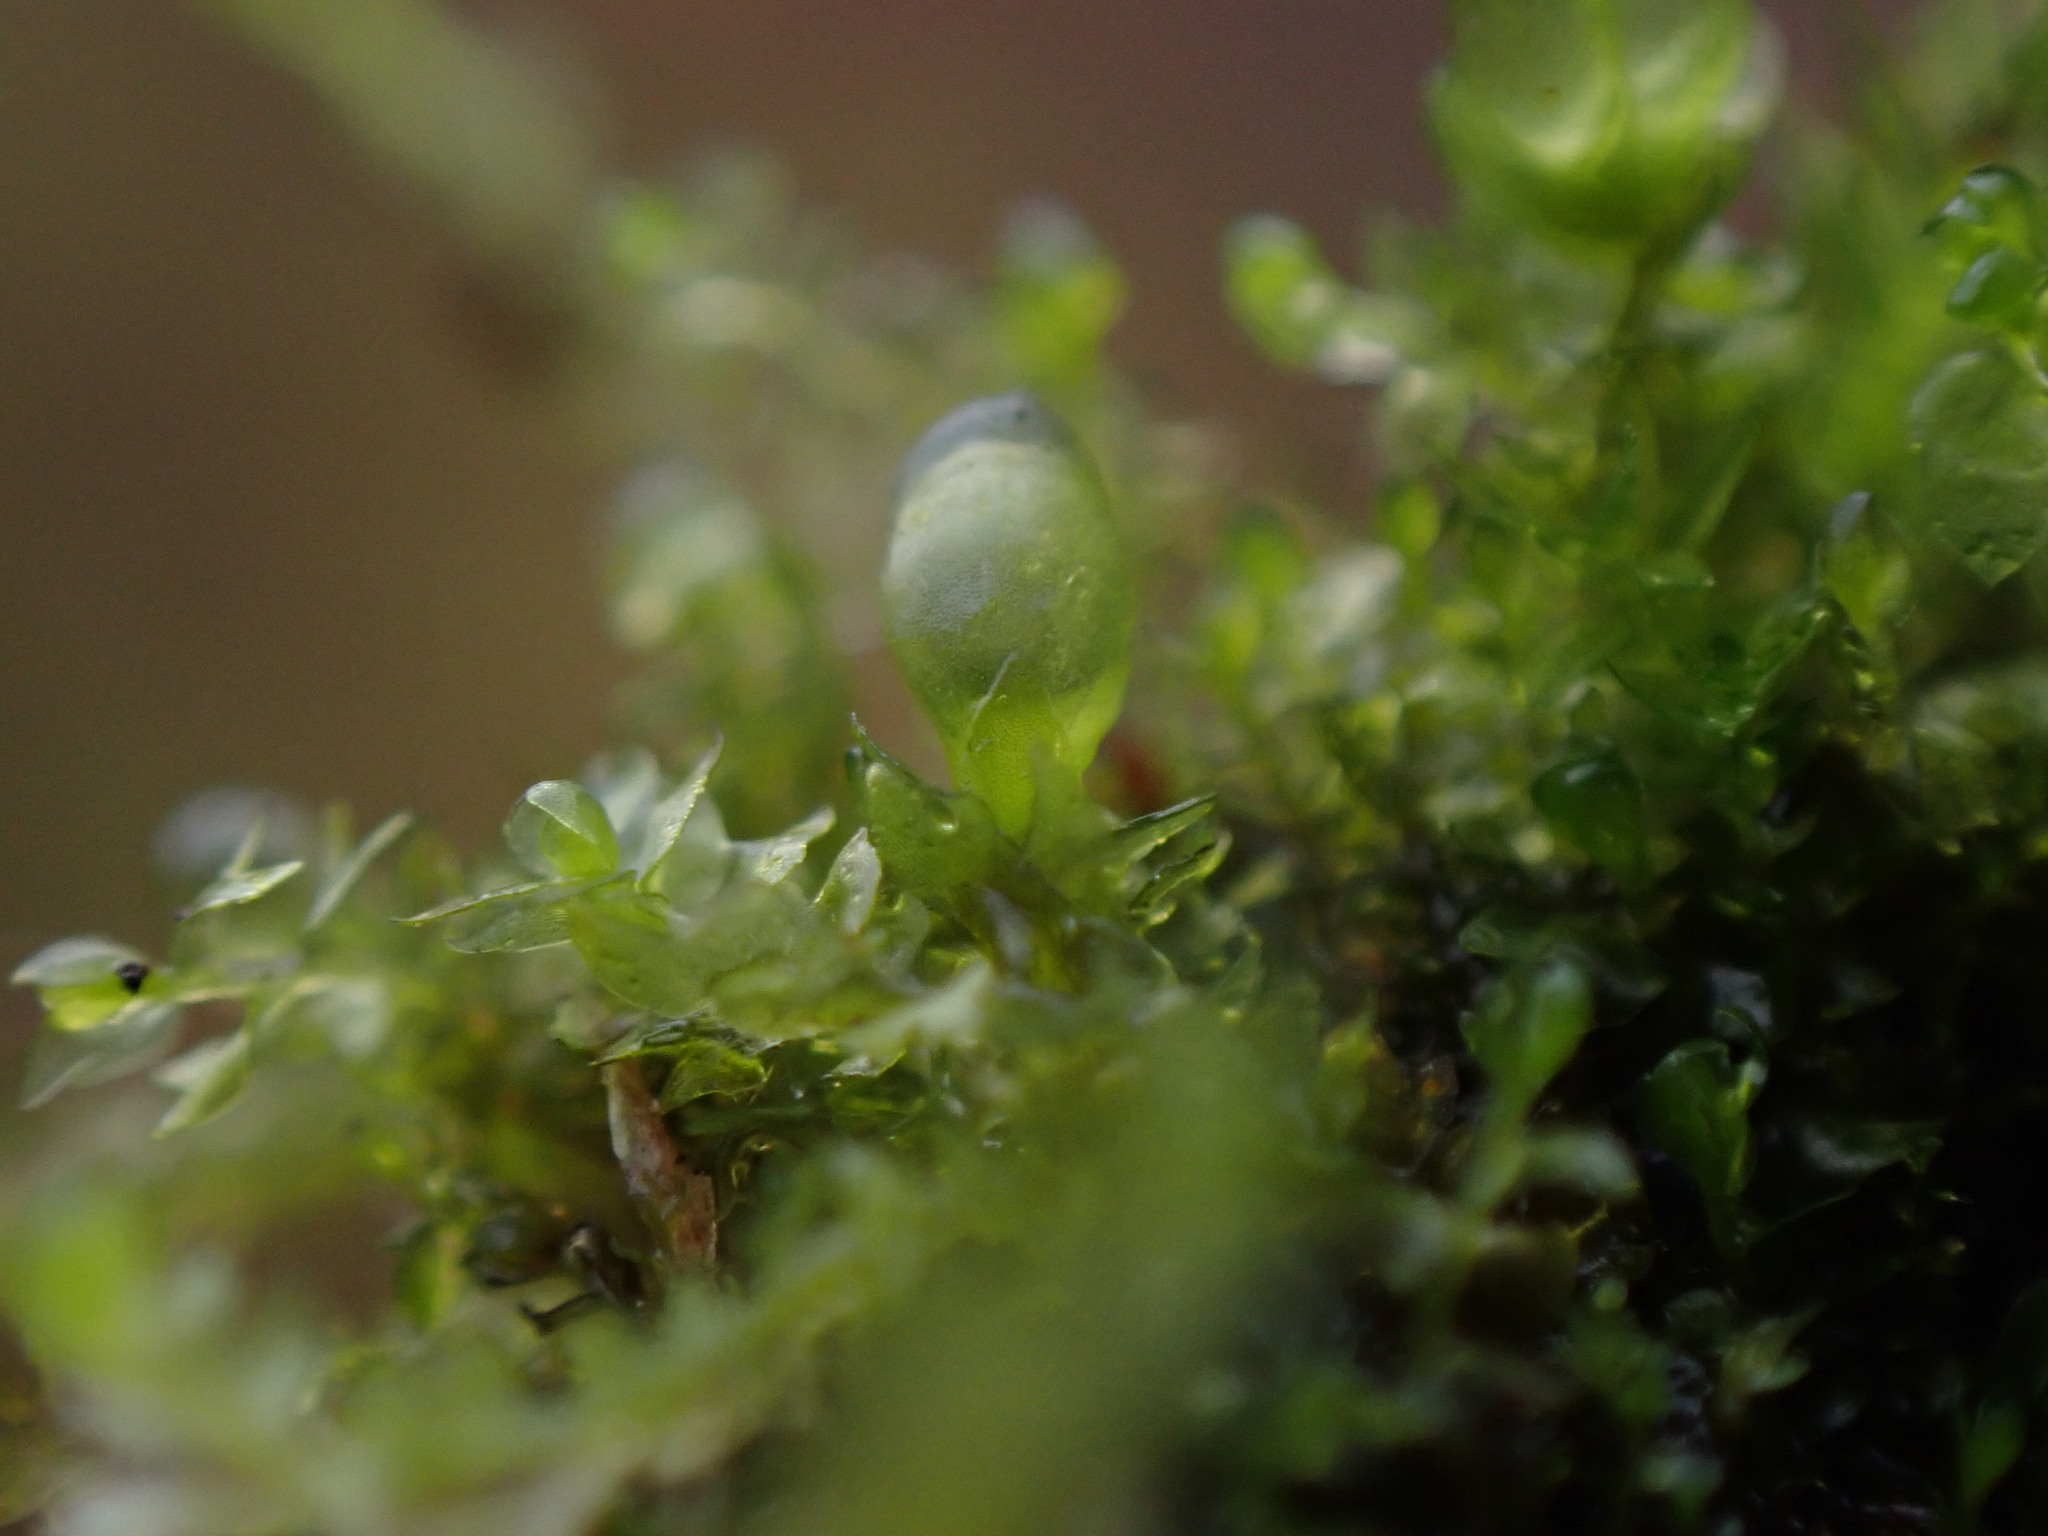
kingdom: Plantae
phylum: Marchantiophyta
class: Jungermanniopsida
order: Jungermanniales
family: Anastrophyllaceae
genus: Gymnocolea
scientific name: Gymnocolea inflata
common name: Inflated notchwort
